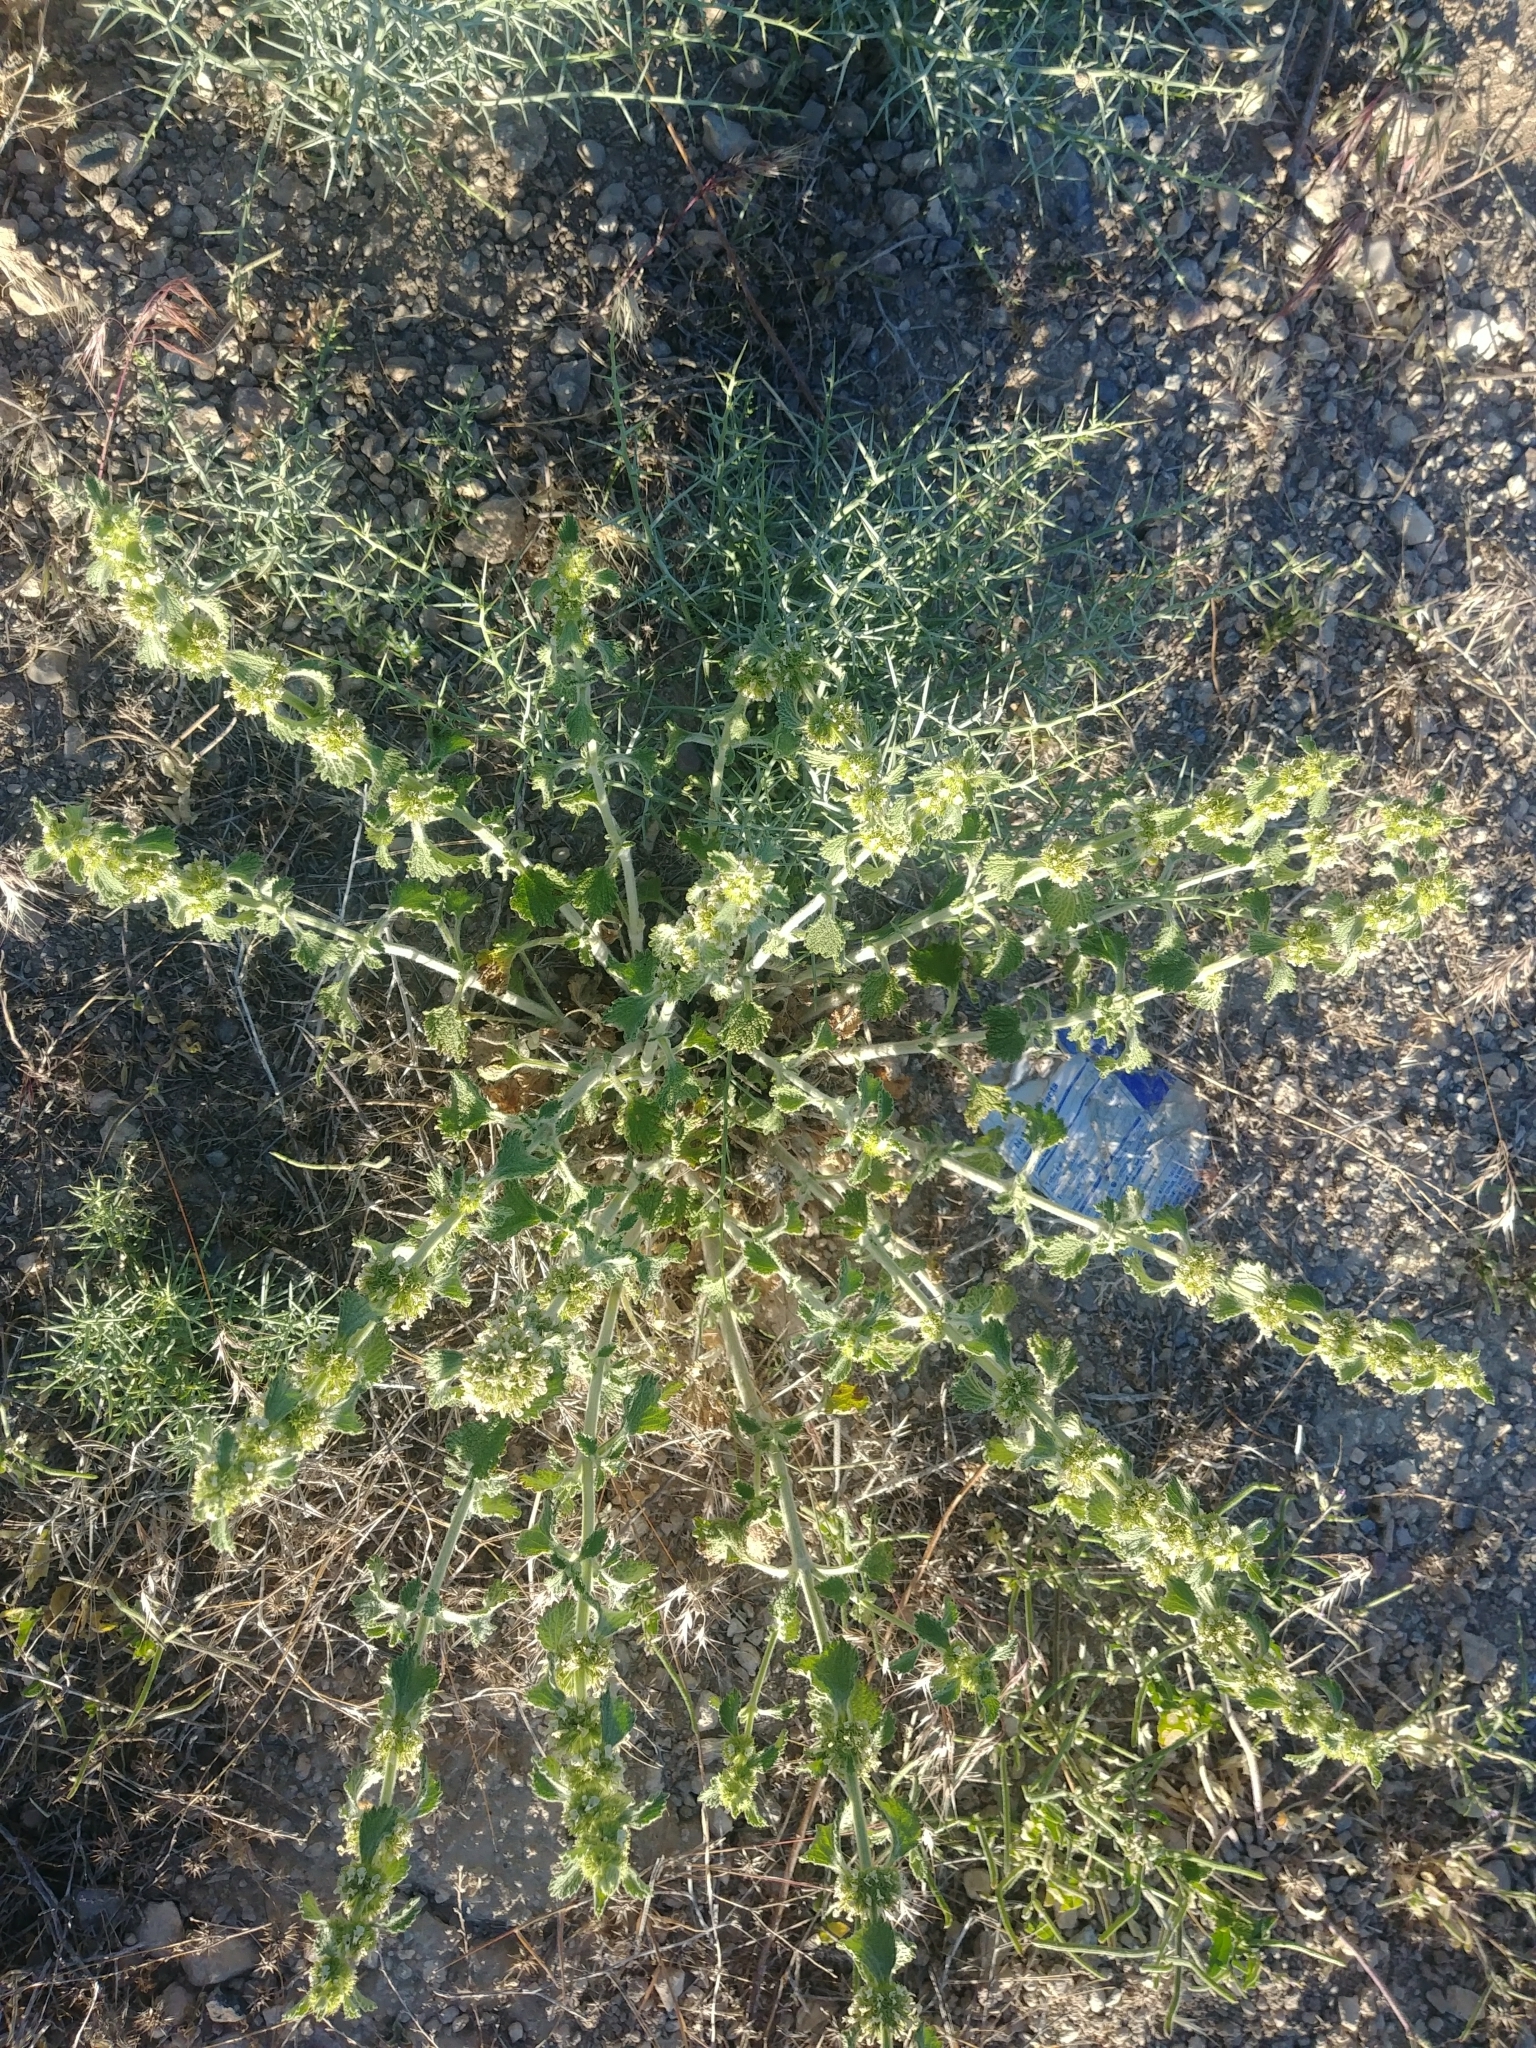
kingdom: Plantae
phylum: Tracheophyta
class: Magnoliopsida
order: Lamiales
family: Lamiaceae
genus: Marrubium
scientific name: Marrubium vulgare
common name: Horehound
